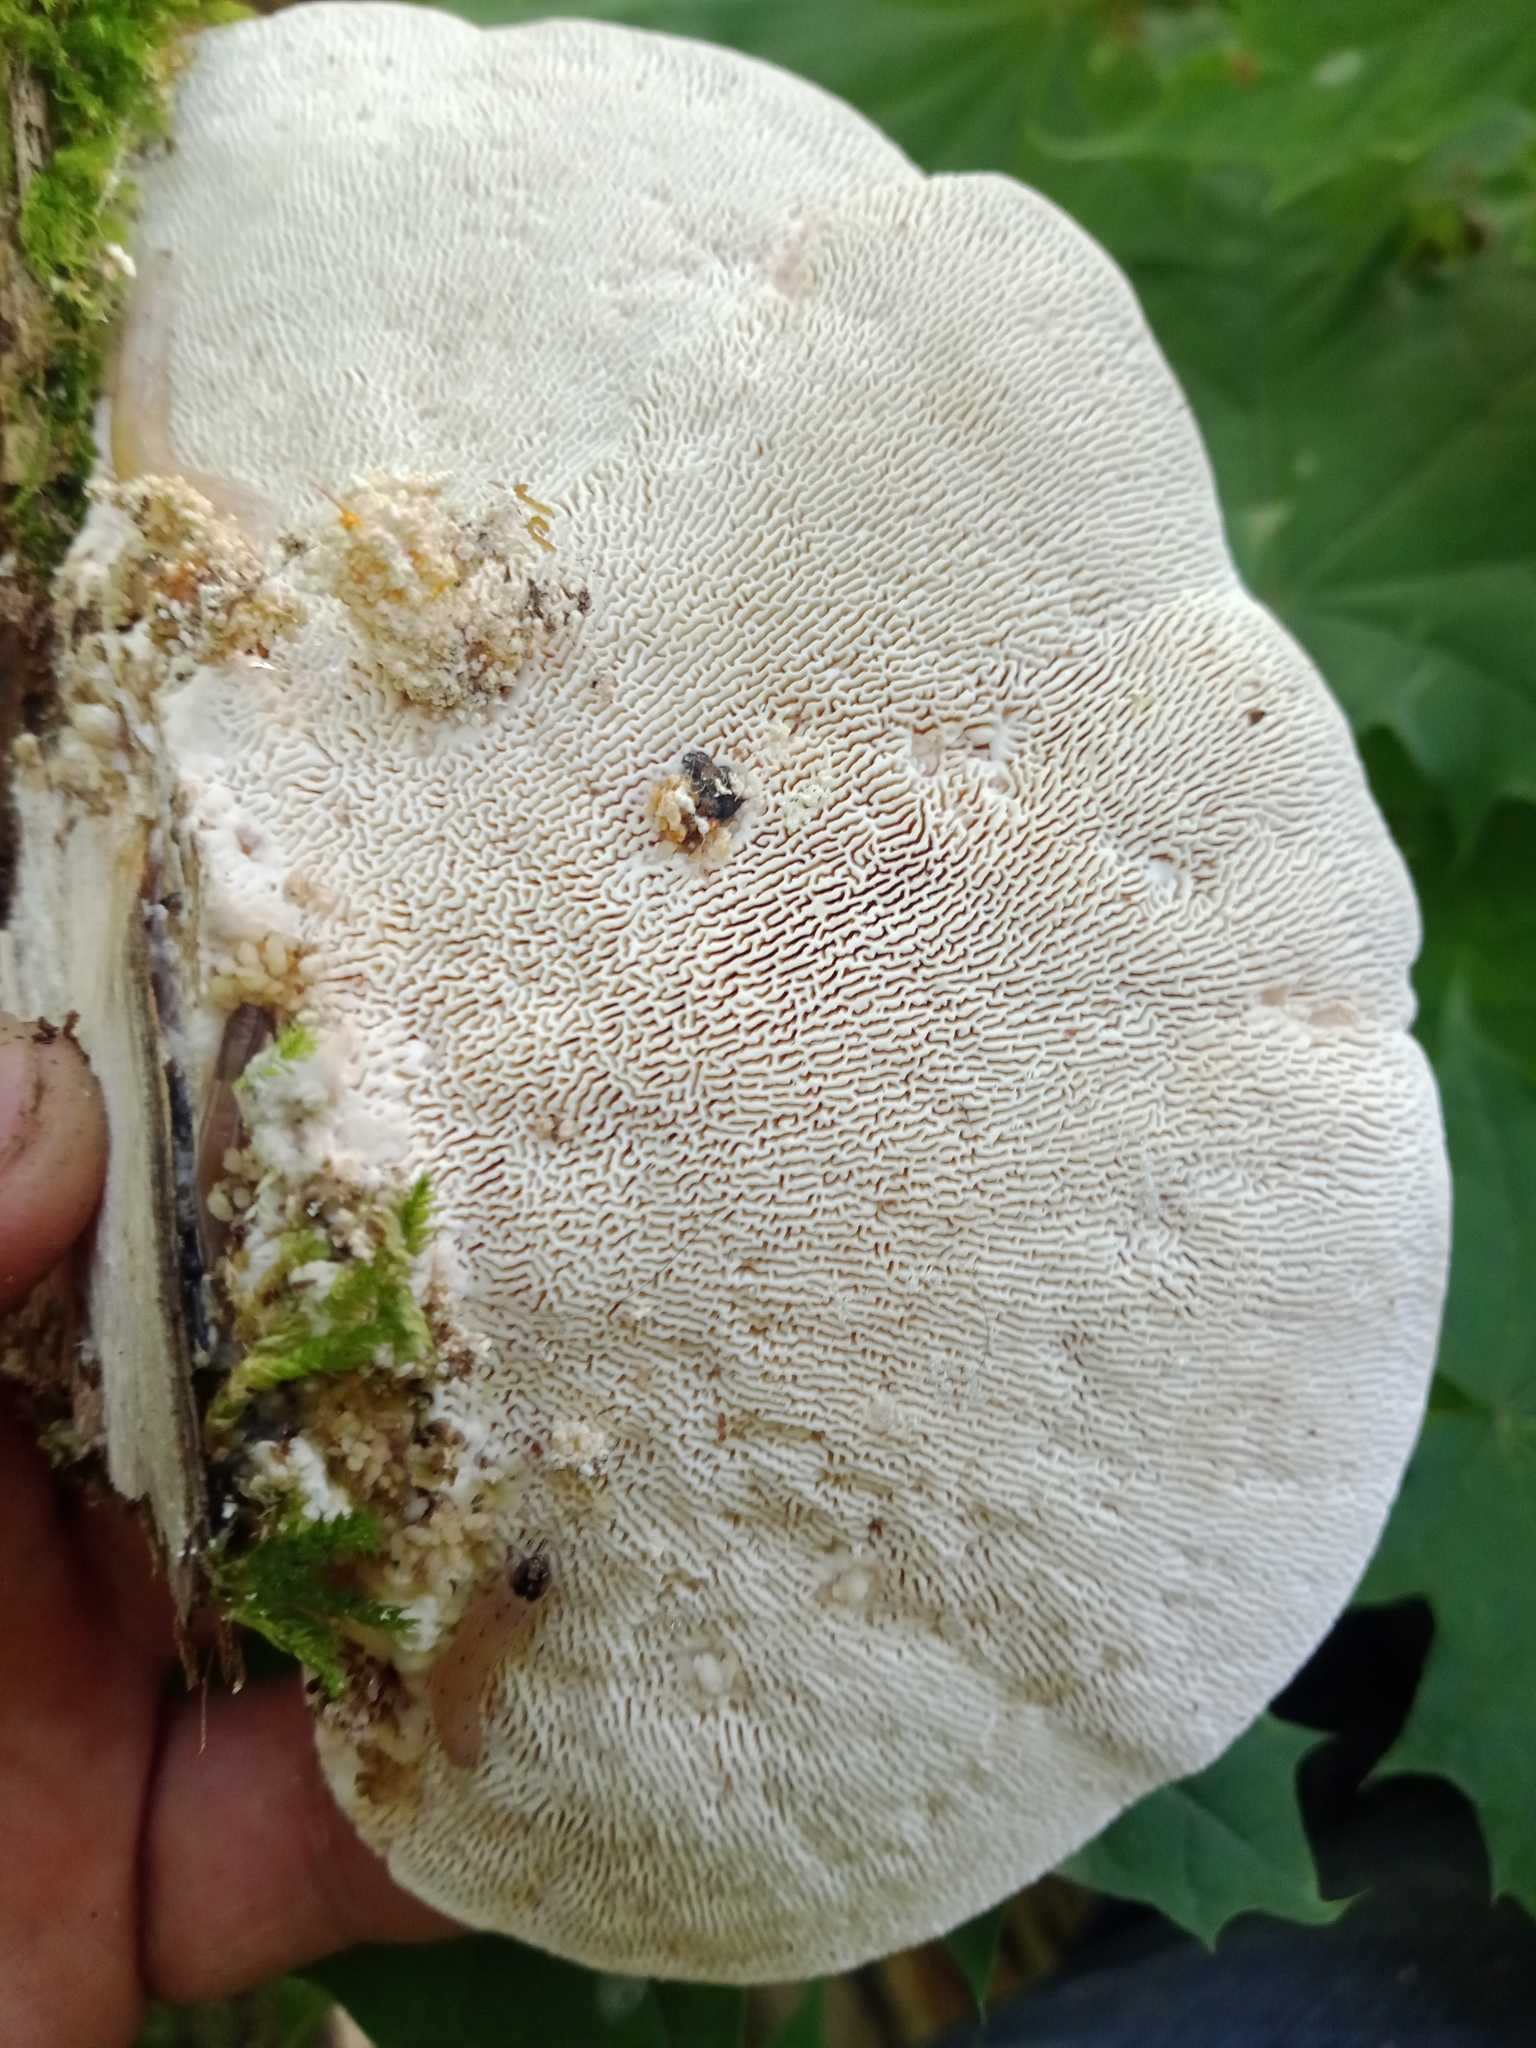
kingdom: Fungi
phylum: Basidiomycota
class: Agaricomycetes
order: Polyporales
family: Polyporaceae
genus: Trametes
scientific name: Trametes gibbosa
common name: Lumpy bracket
